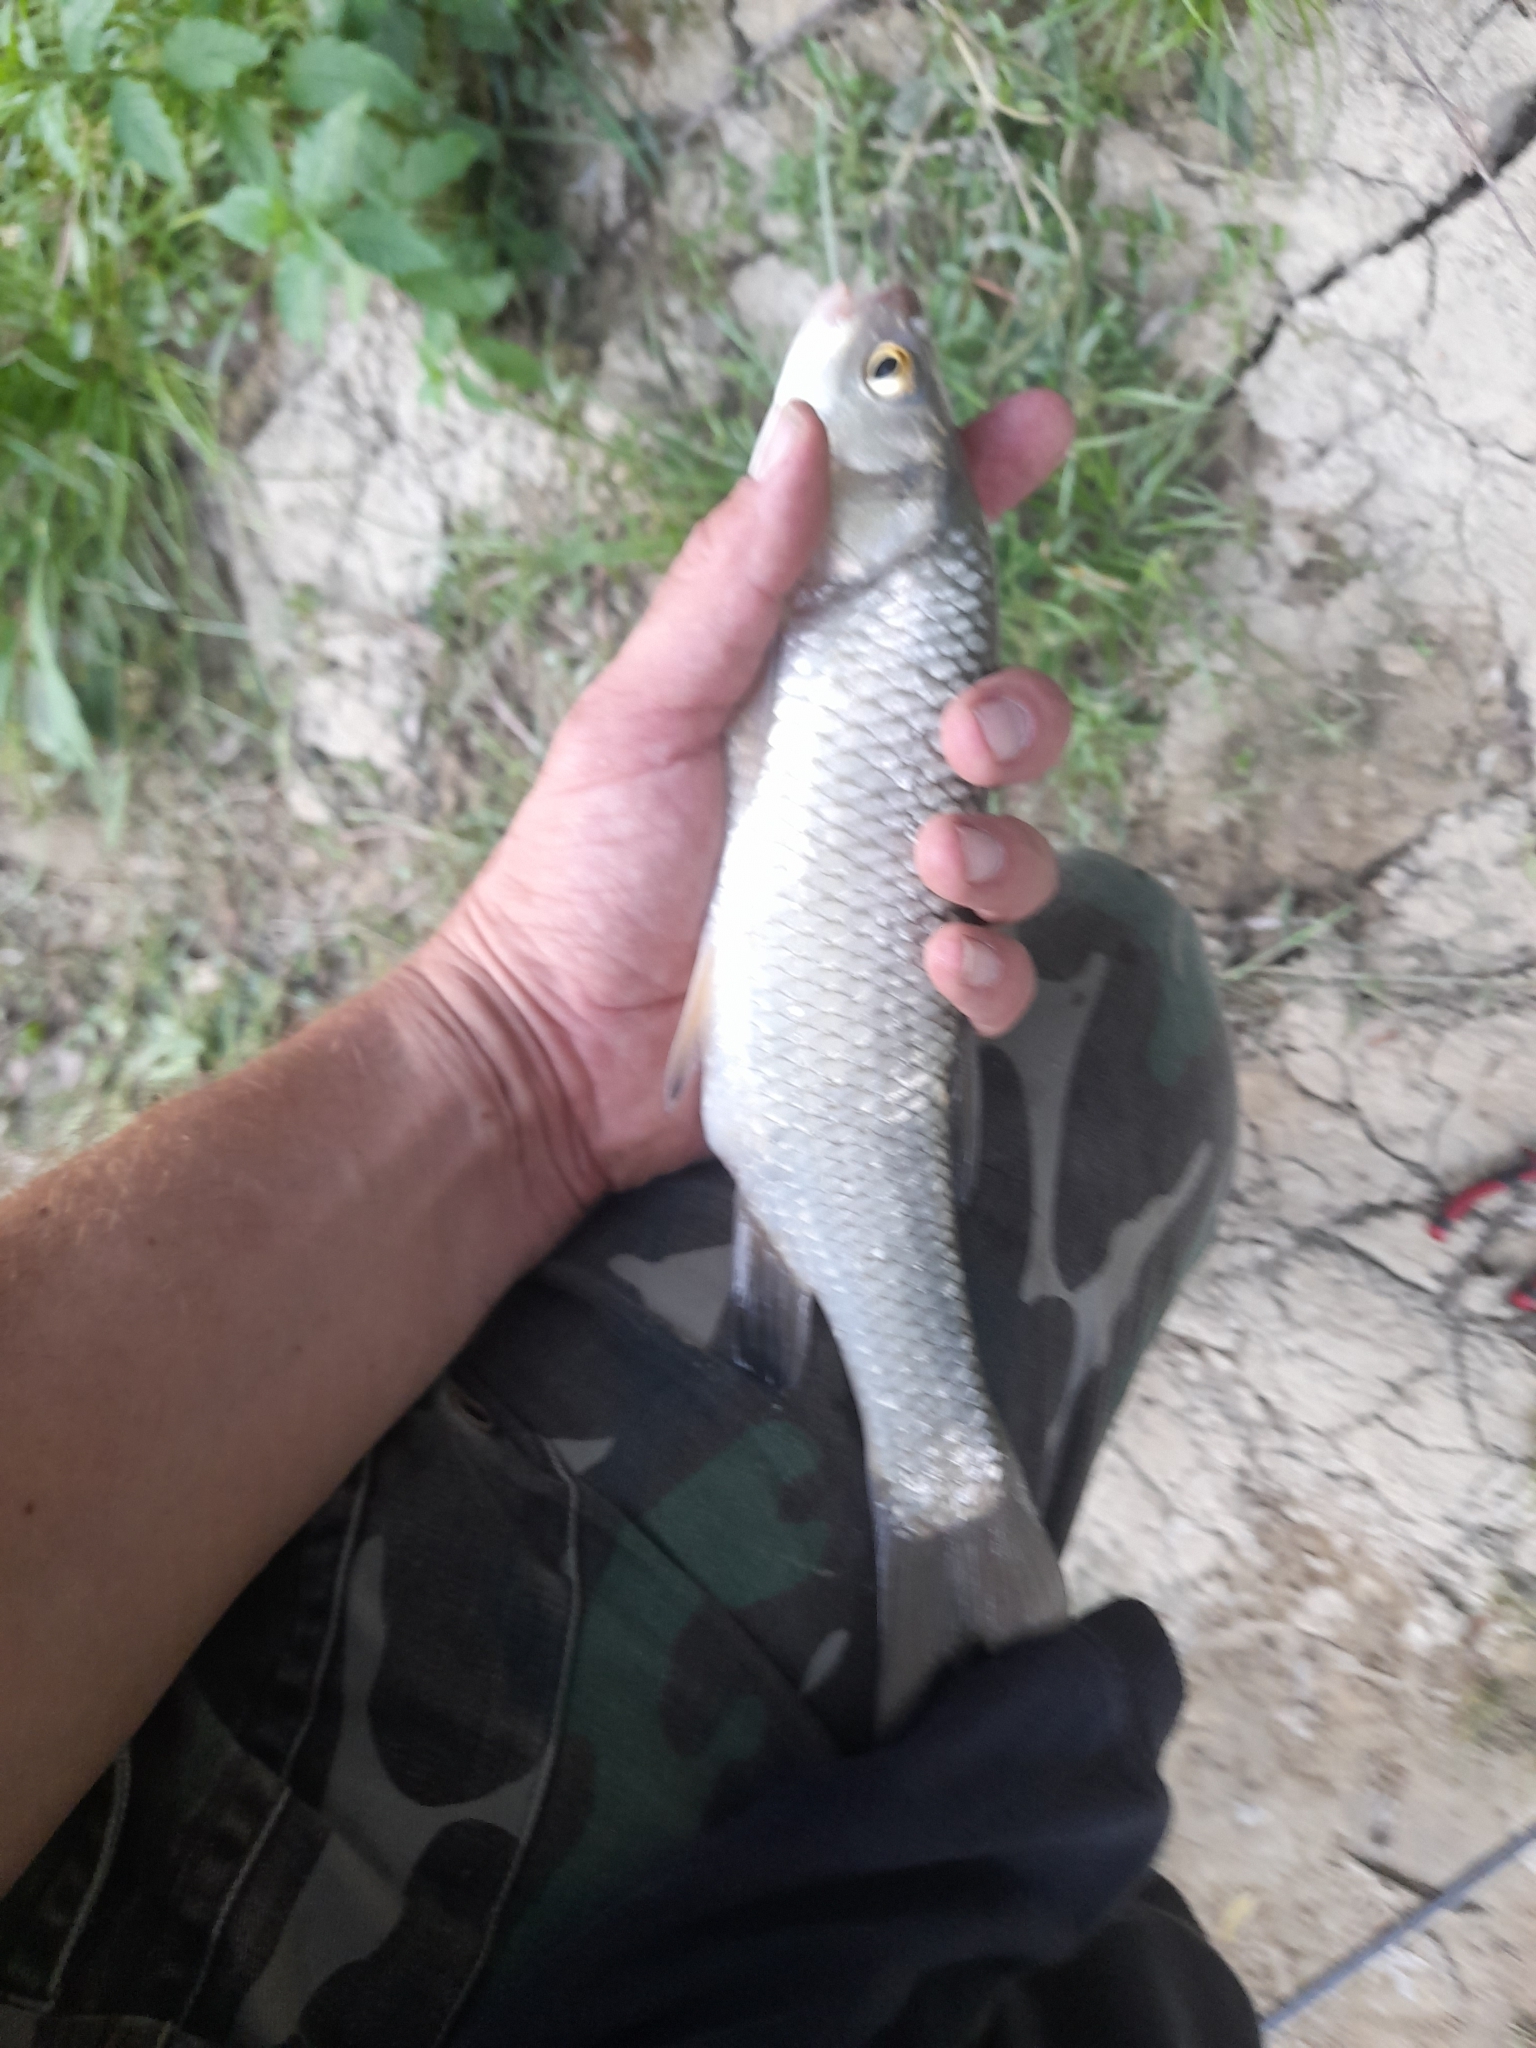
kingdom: Animalia
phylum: Chordata
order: Cypriniformes
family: Cyprinidae
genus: Squalius
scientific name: Squalius squalus
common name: Italian chub
